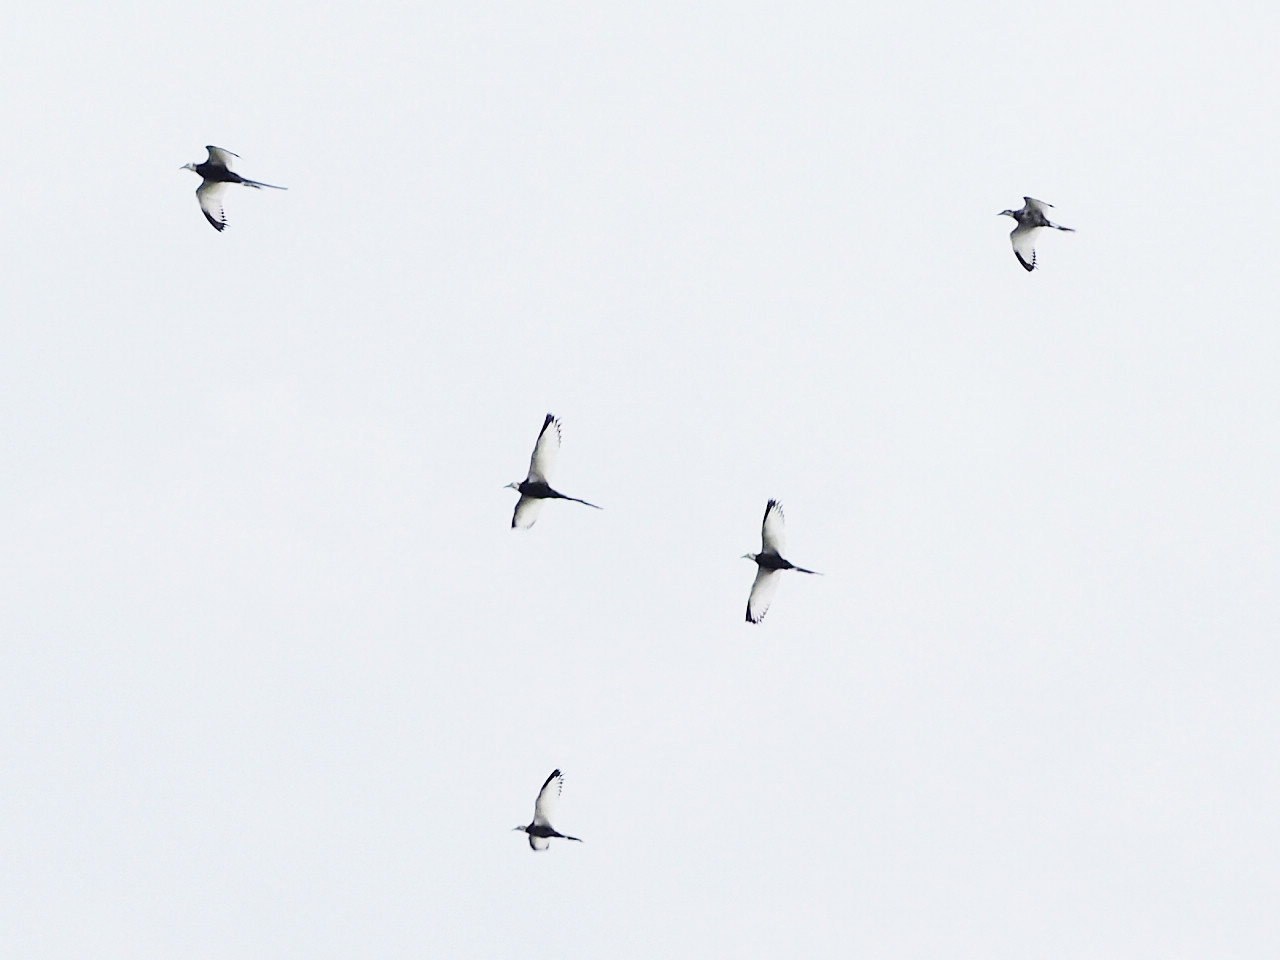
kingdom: Animalia
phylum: Chordata
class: Aves
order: Charadriiformes
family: Jacanidae
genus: Hydrophasianus
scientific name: Hydrophasianus chirurgus
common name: Pheasant-tailed jacana
